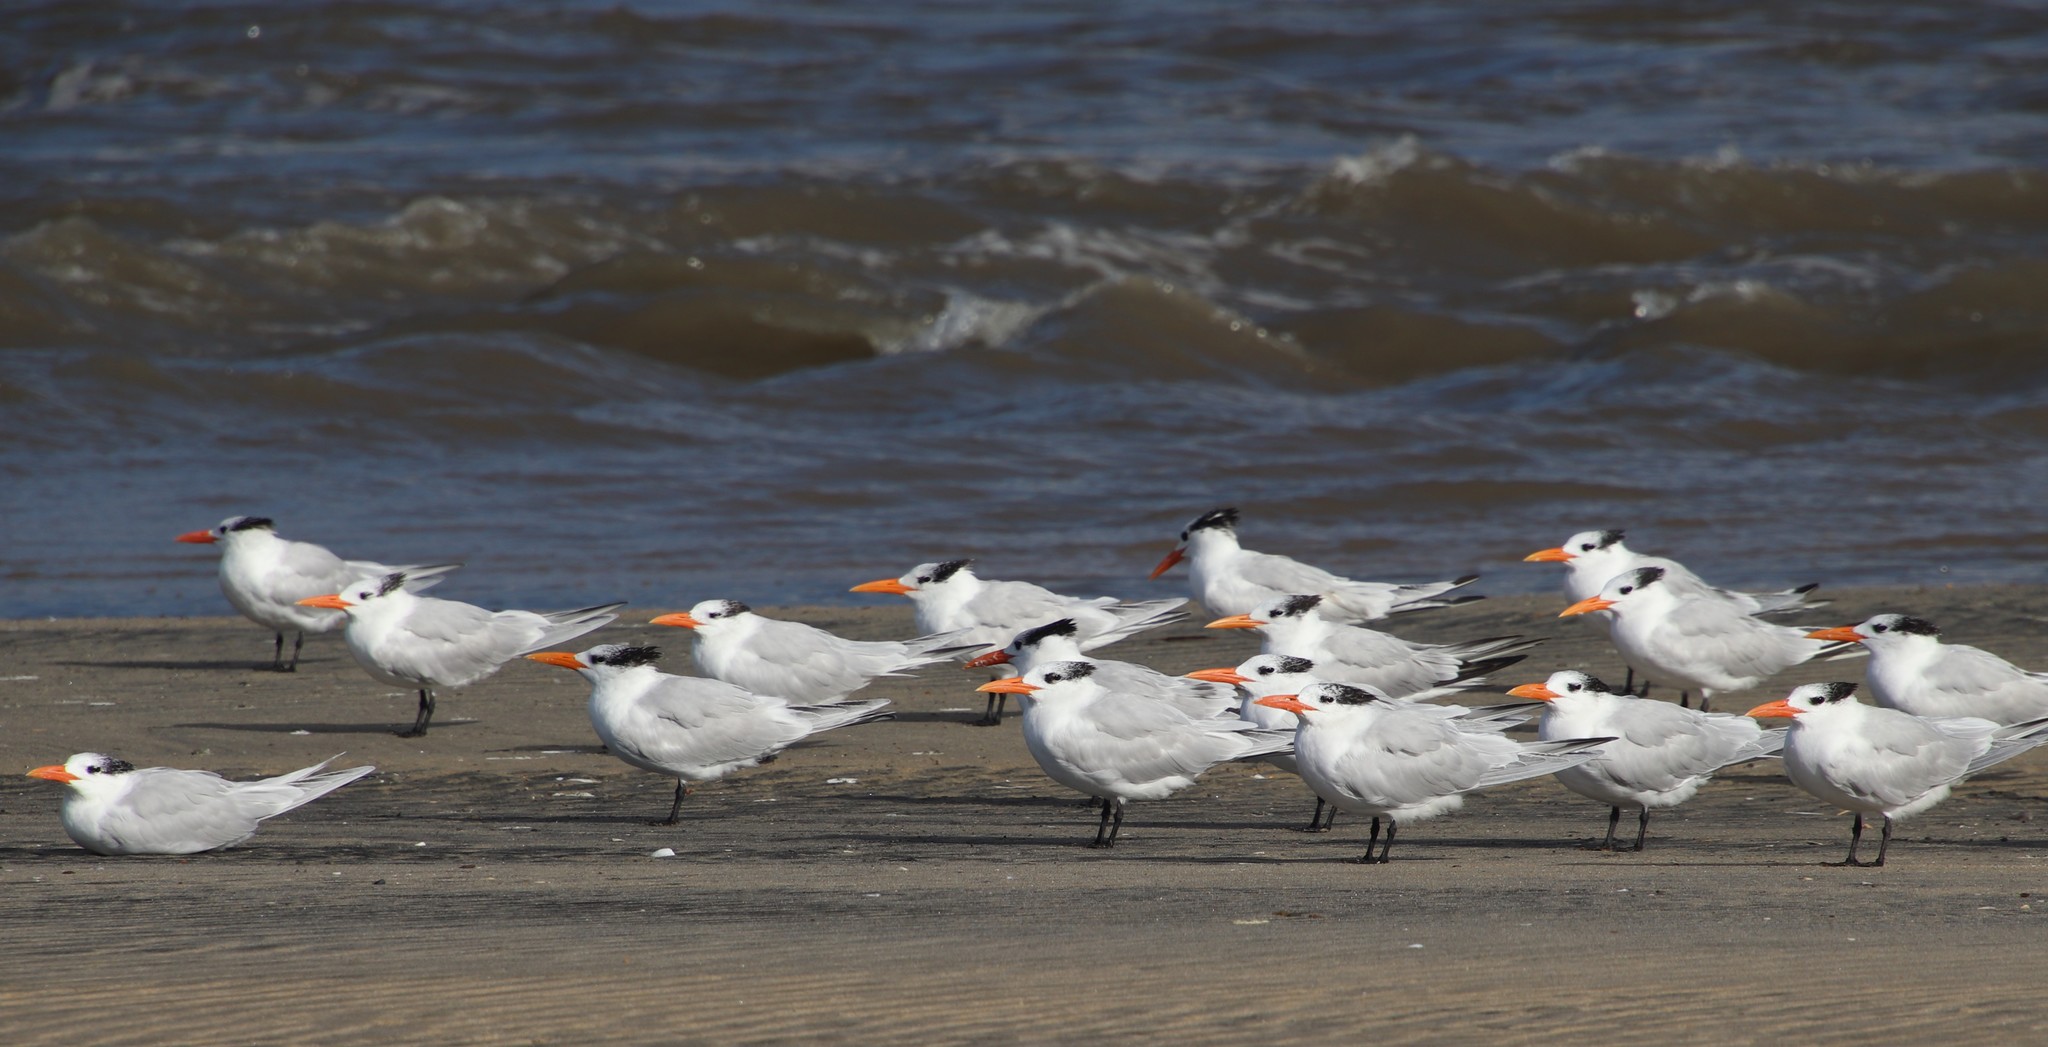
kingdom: Animalia
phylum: Chordata
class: Aves
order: Charadriiformes
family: Laridae
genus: Thalasseus
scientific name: Thalasseus maximus
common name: Royal tern
